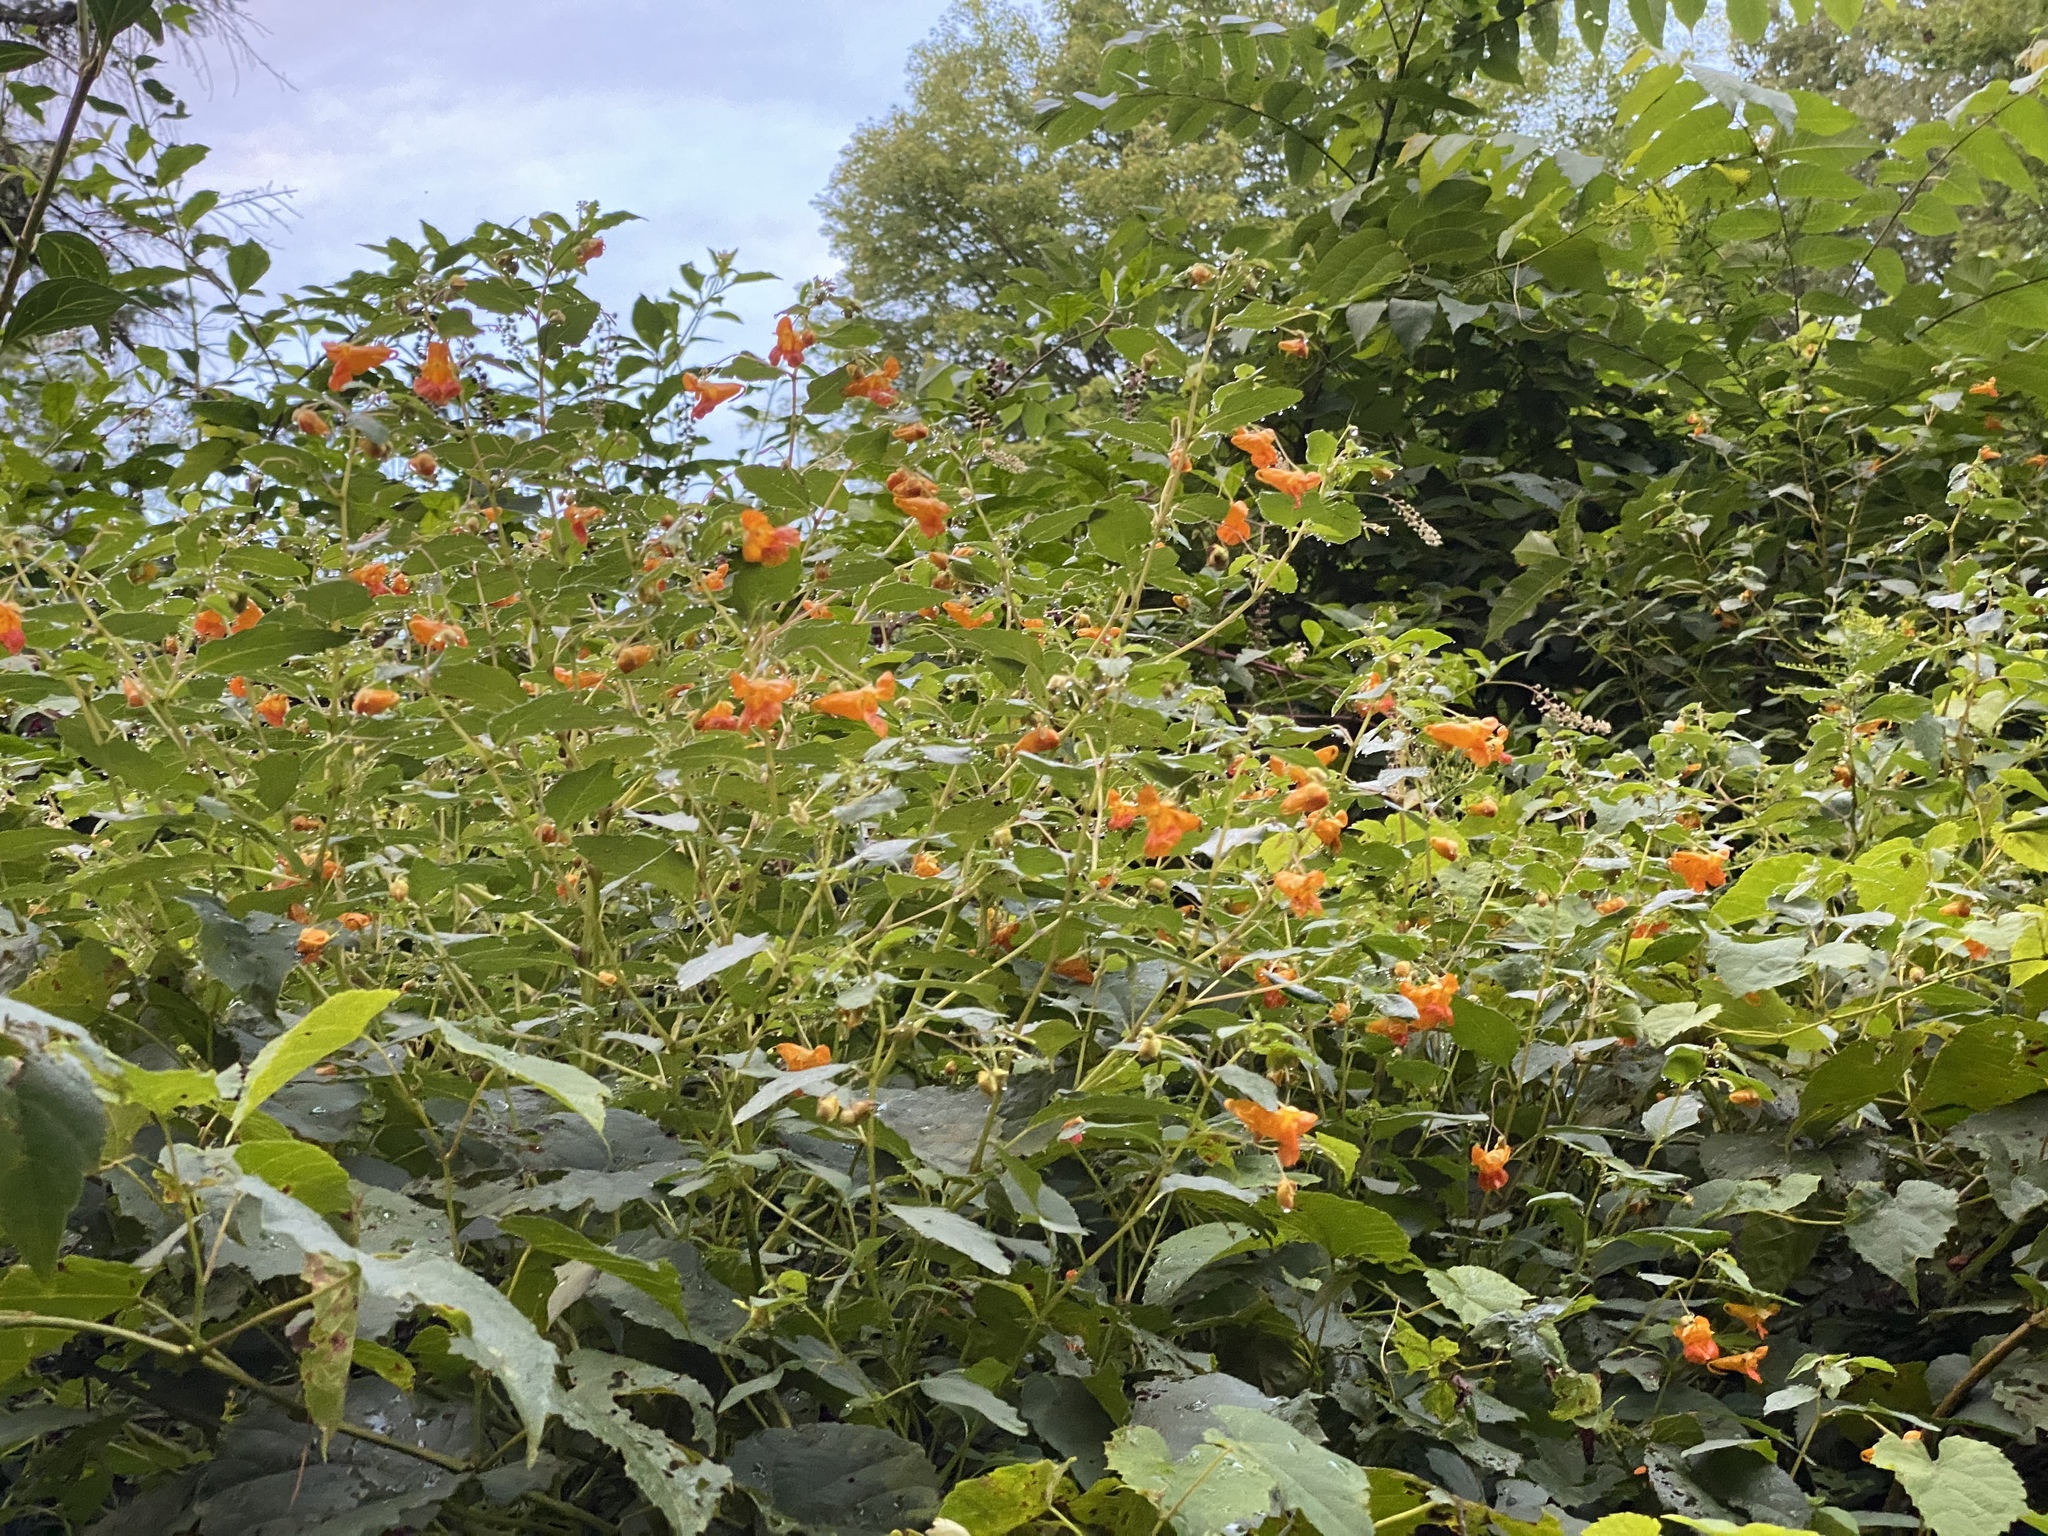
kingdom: Plantae
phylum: Tracheophyta
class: Magnoliopsida
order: Ericales
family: Balsaminaceae
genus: Impatiens
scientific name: Impatiens capensis
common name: Orange balsam
